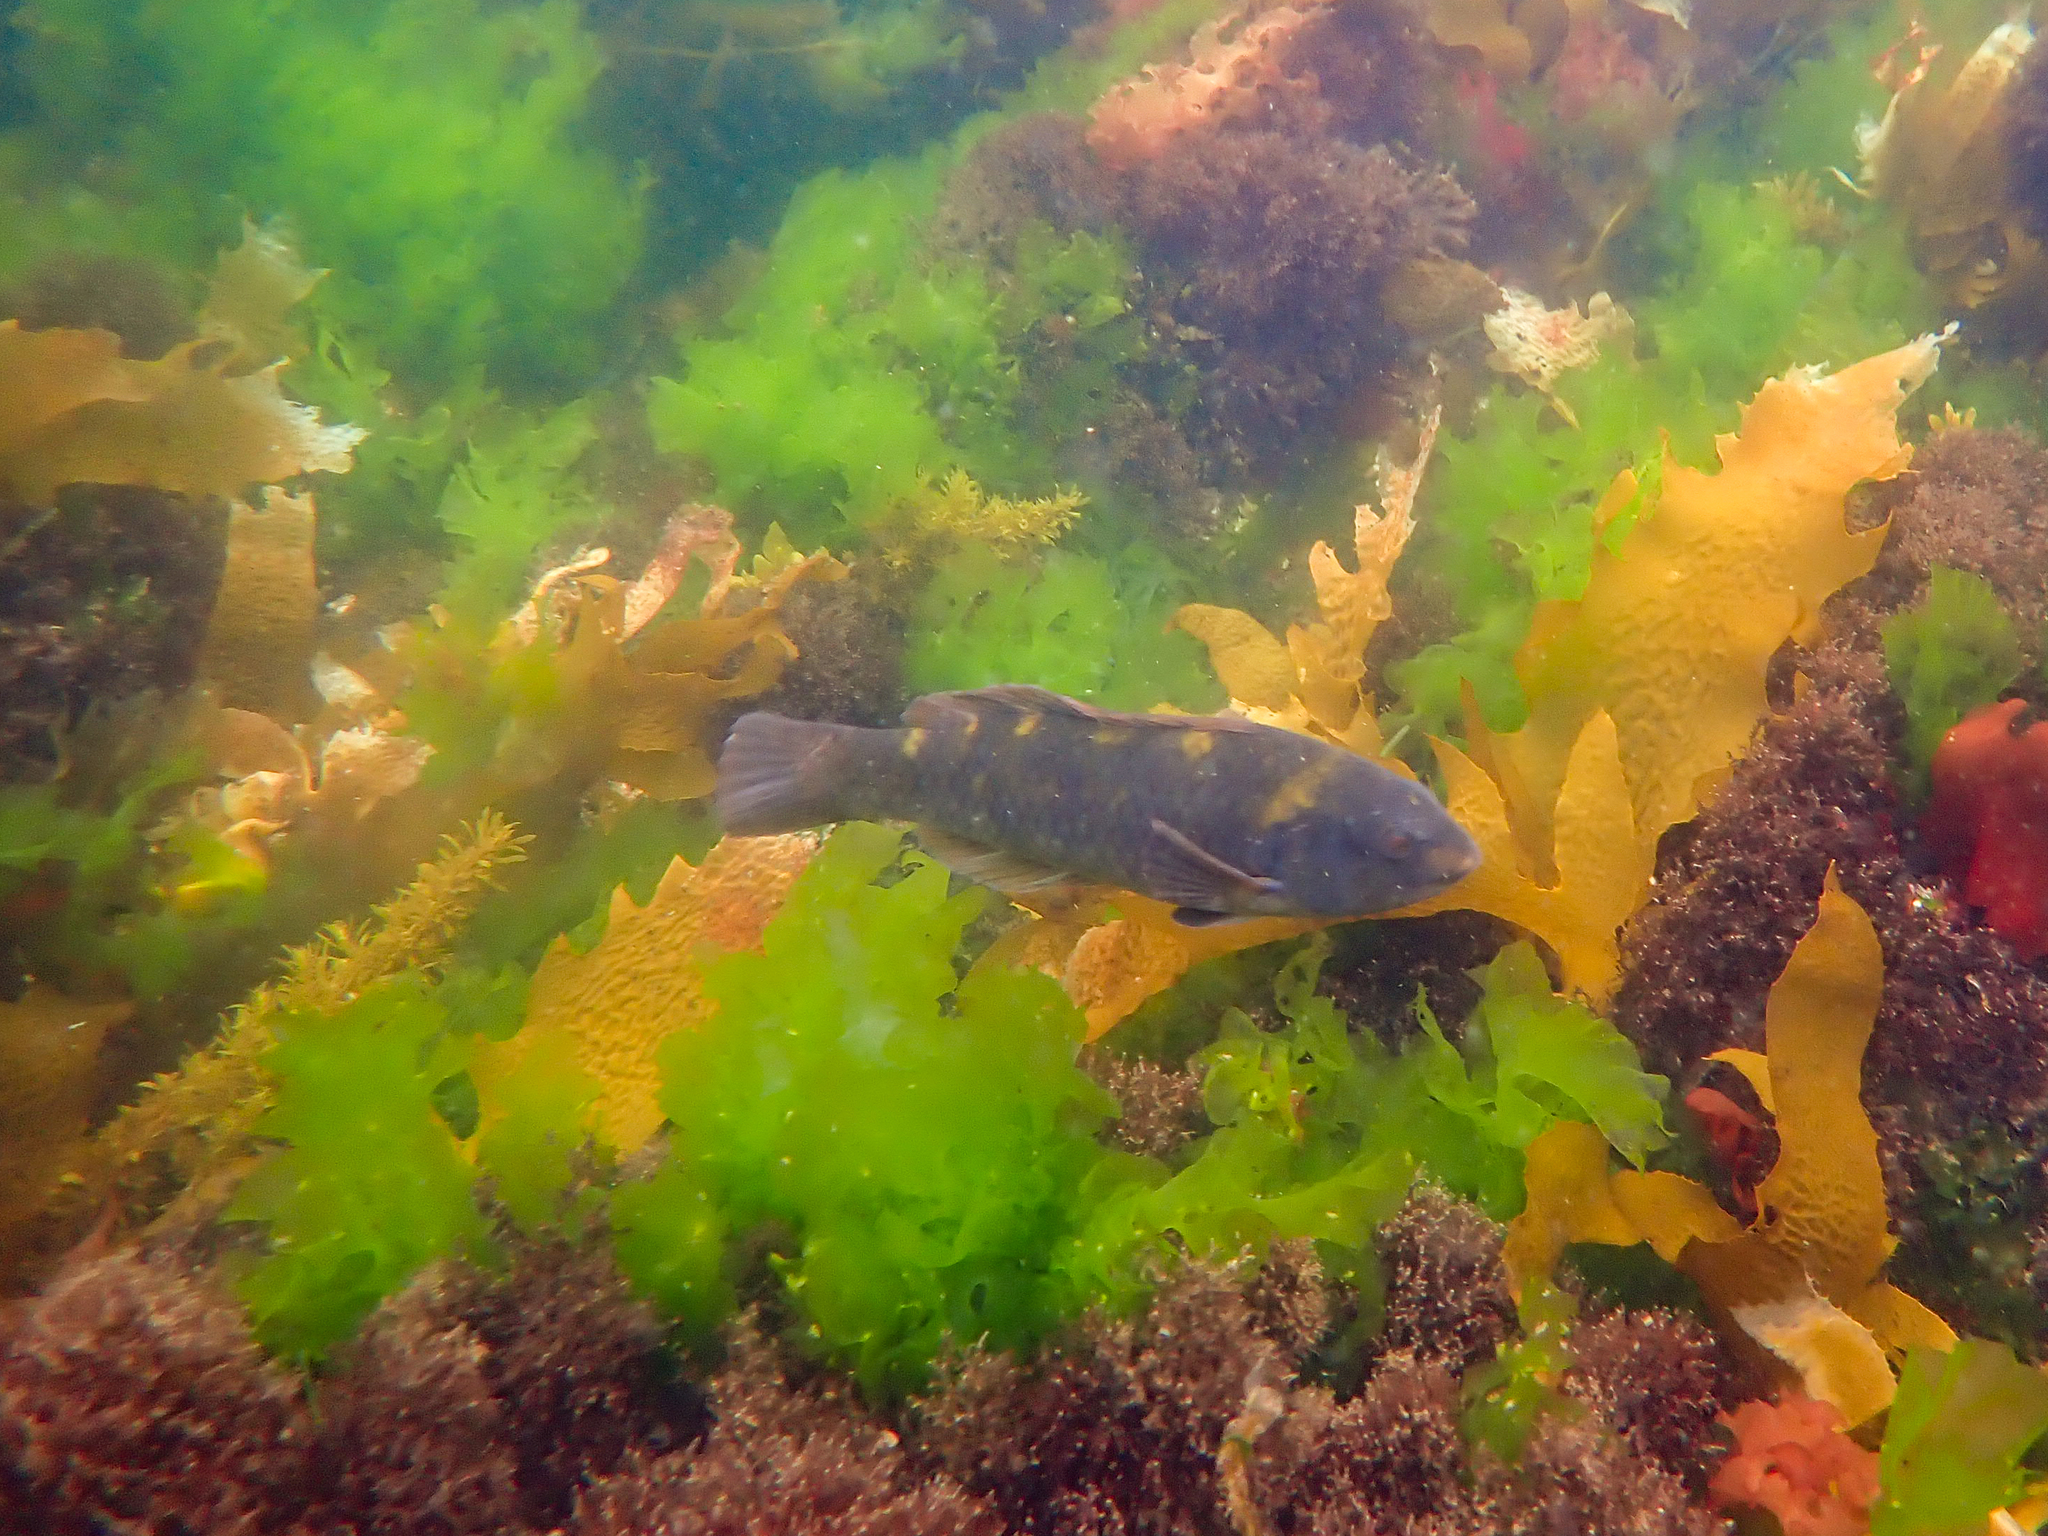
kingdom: Animalia
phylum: Chordata
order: Perciformes
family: Labridae
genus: Notolabrus
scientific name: Notolabrus fucicola
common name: Banded parrotfish
